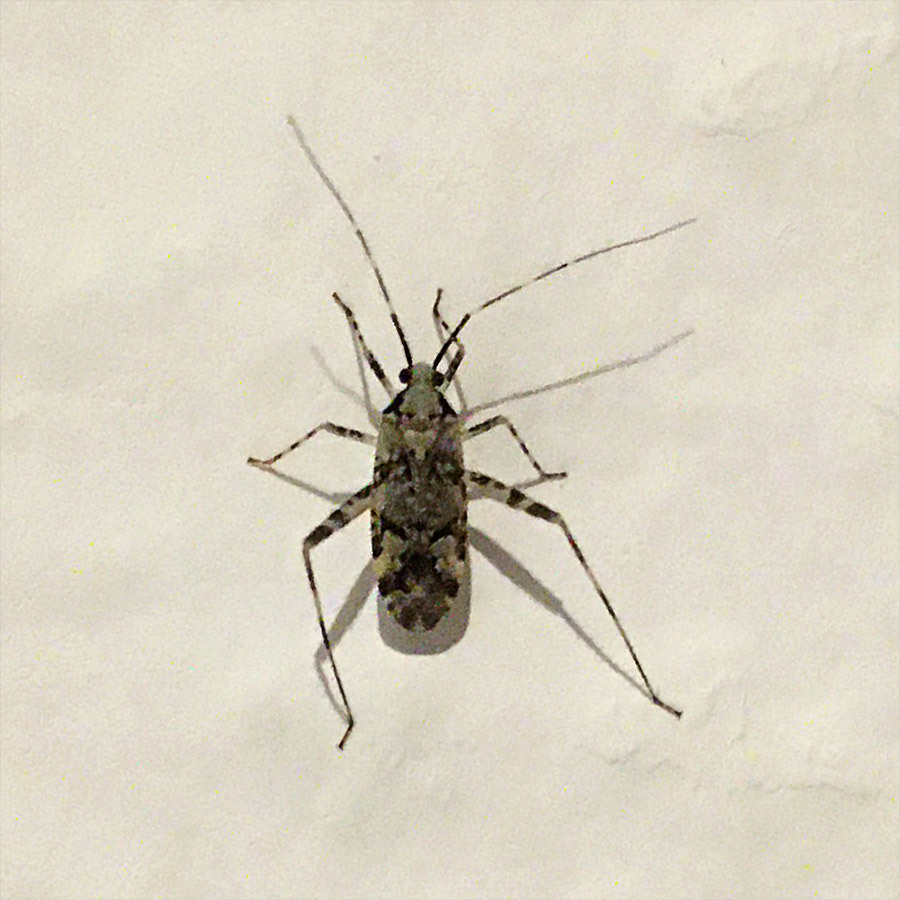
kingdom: Animalia
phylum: Arthropoda
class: Insecta
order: Hemiptera
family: Miridae
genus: Phytocoris
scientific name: Phytocoris tiliae
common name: Plant bug
